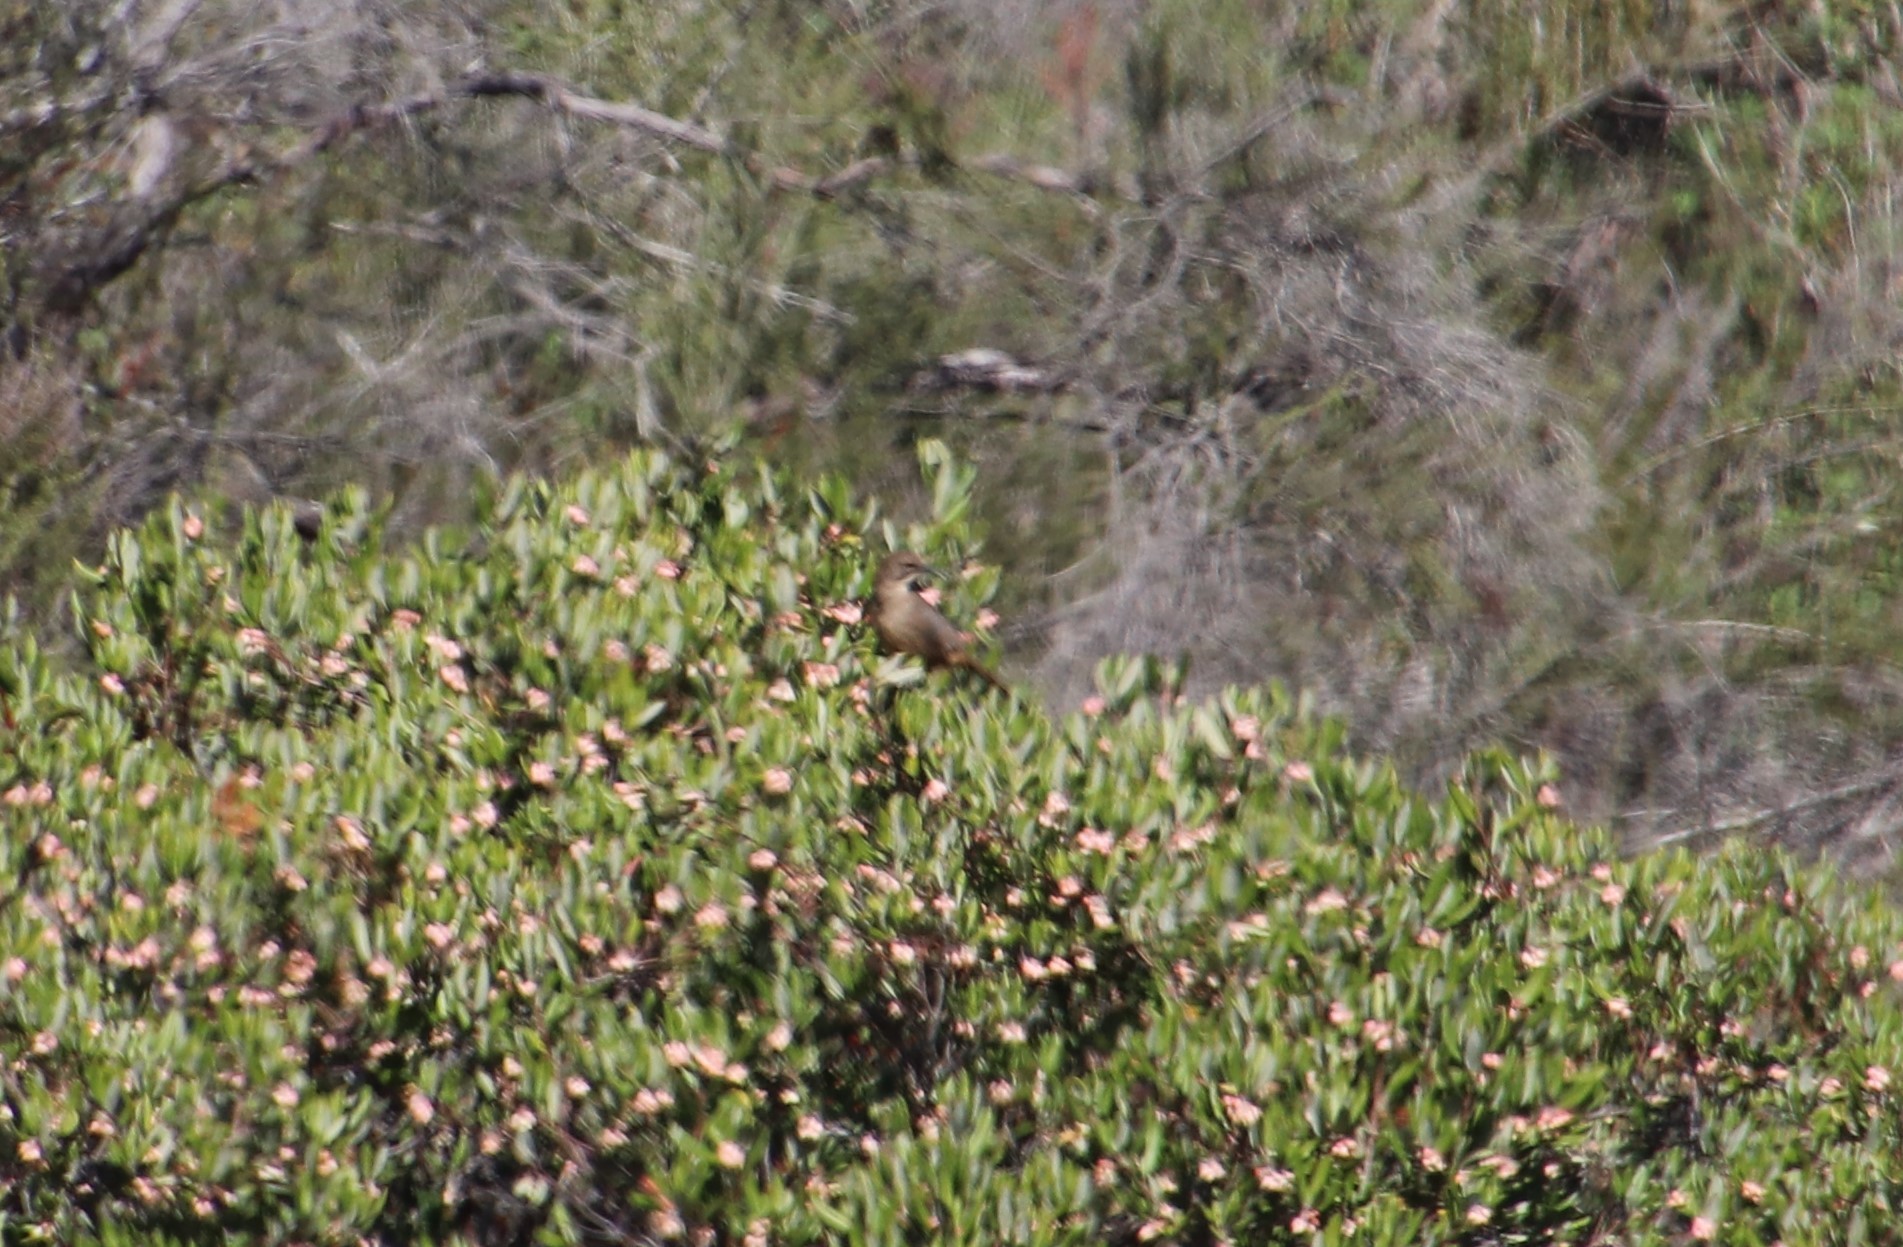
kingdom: Animalia
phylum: Chordata
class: Aves
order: Passeriformes
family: Mimidae
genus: Toxostoma
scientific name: Toxostoma redivivum
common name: California thrasher
